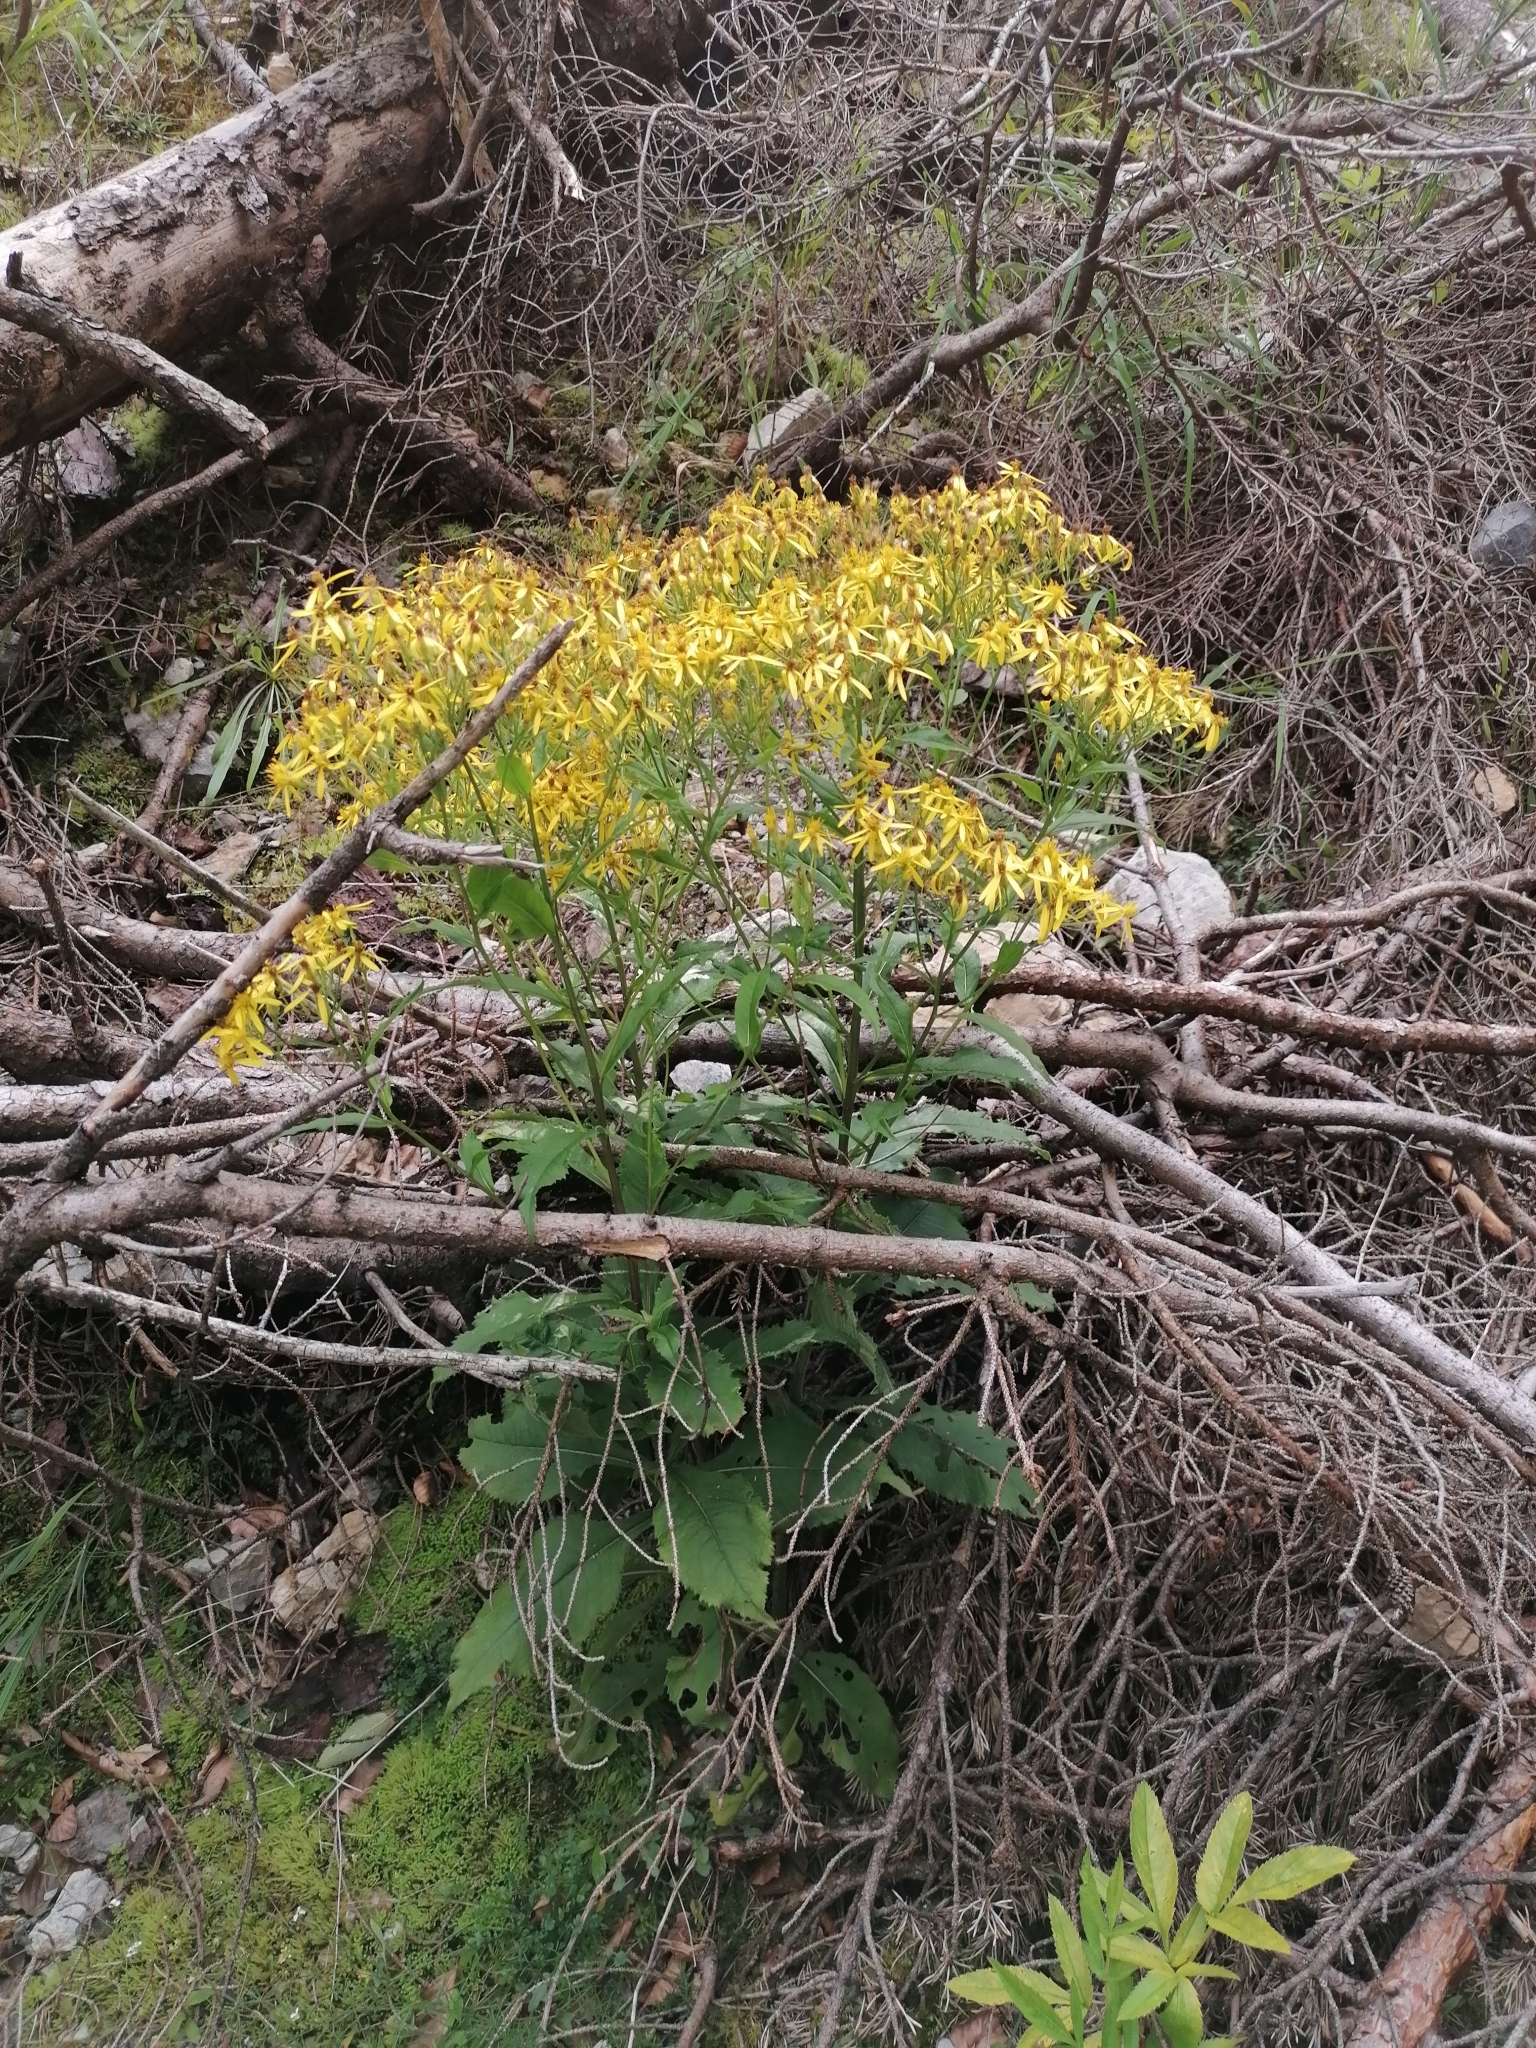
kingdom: Plantae
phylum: Tracheophyta
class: Magnoliopsida
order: Asterales
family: Asteraceae
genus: Senecio
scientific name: Senecio ovatus
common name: Wood ragwort
